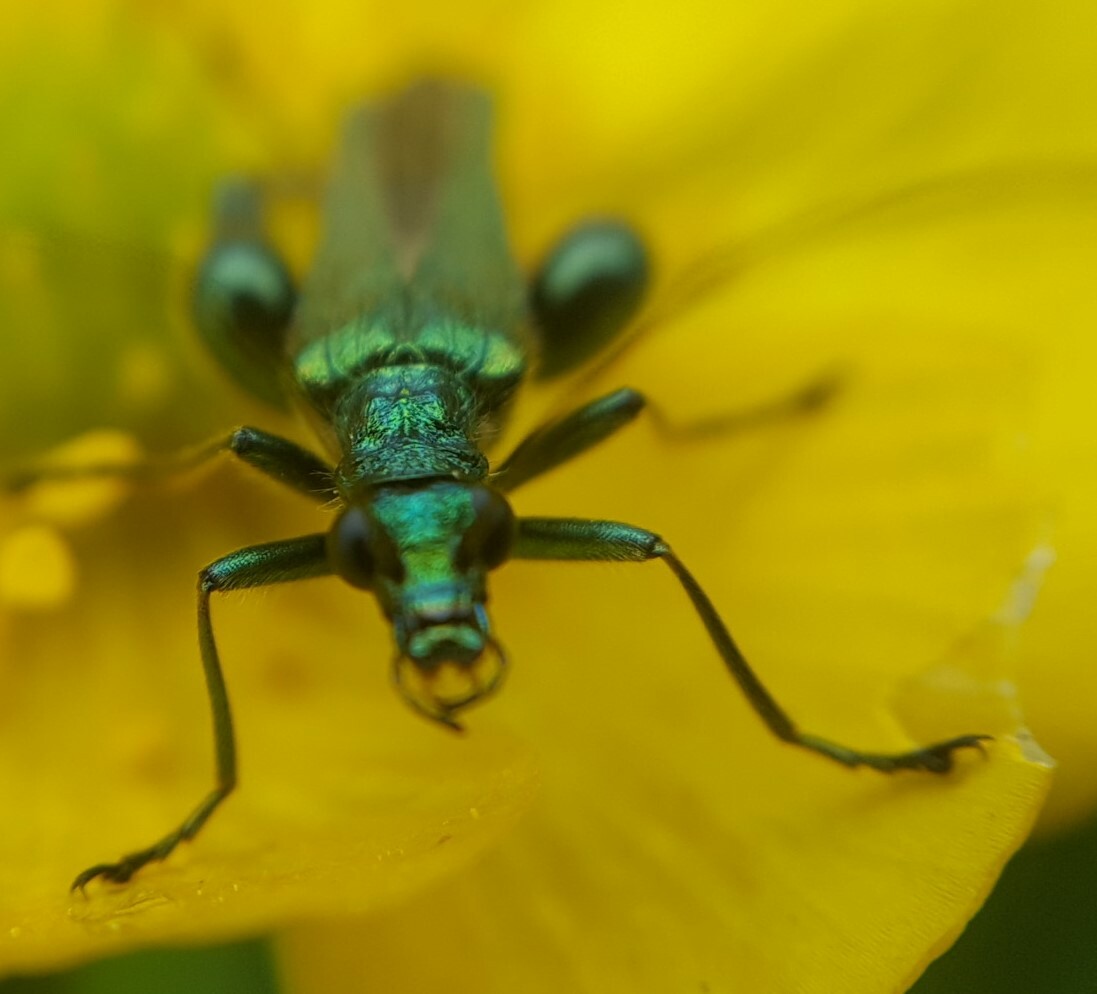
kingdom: Animalia
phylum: Arthropoda
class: Insecta
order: Coleoptera
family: Oedemeridae
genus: Oedemera
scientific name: Oedemera nobilis
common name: Swollen-thighed beetle
